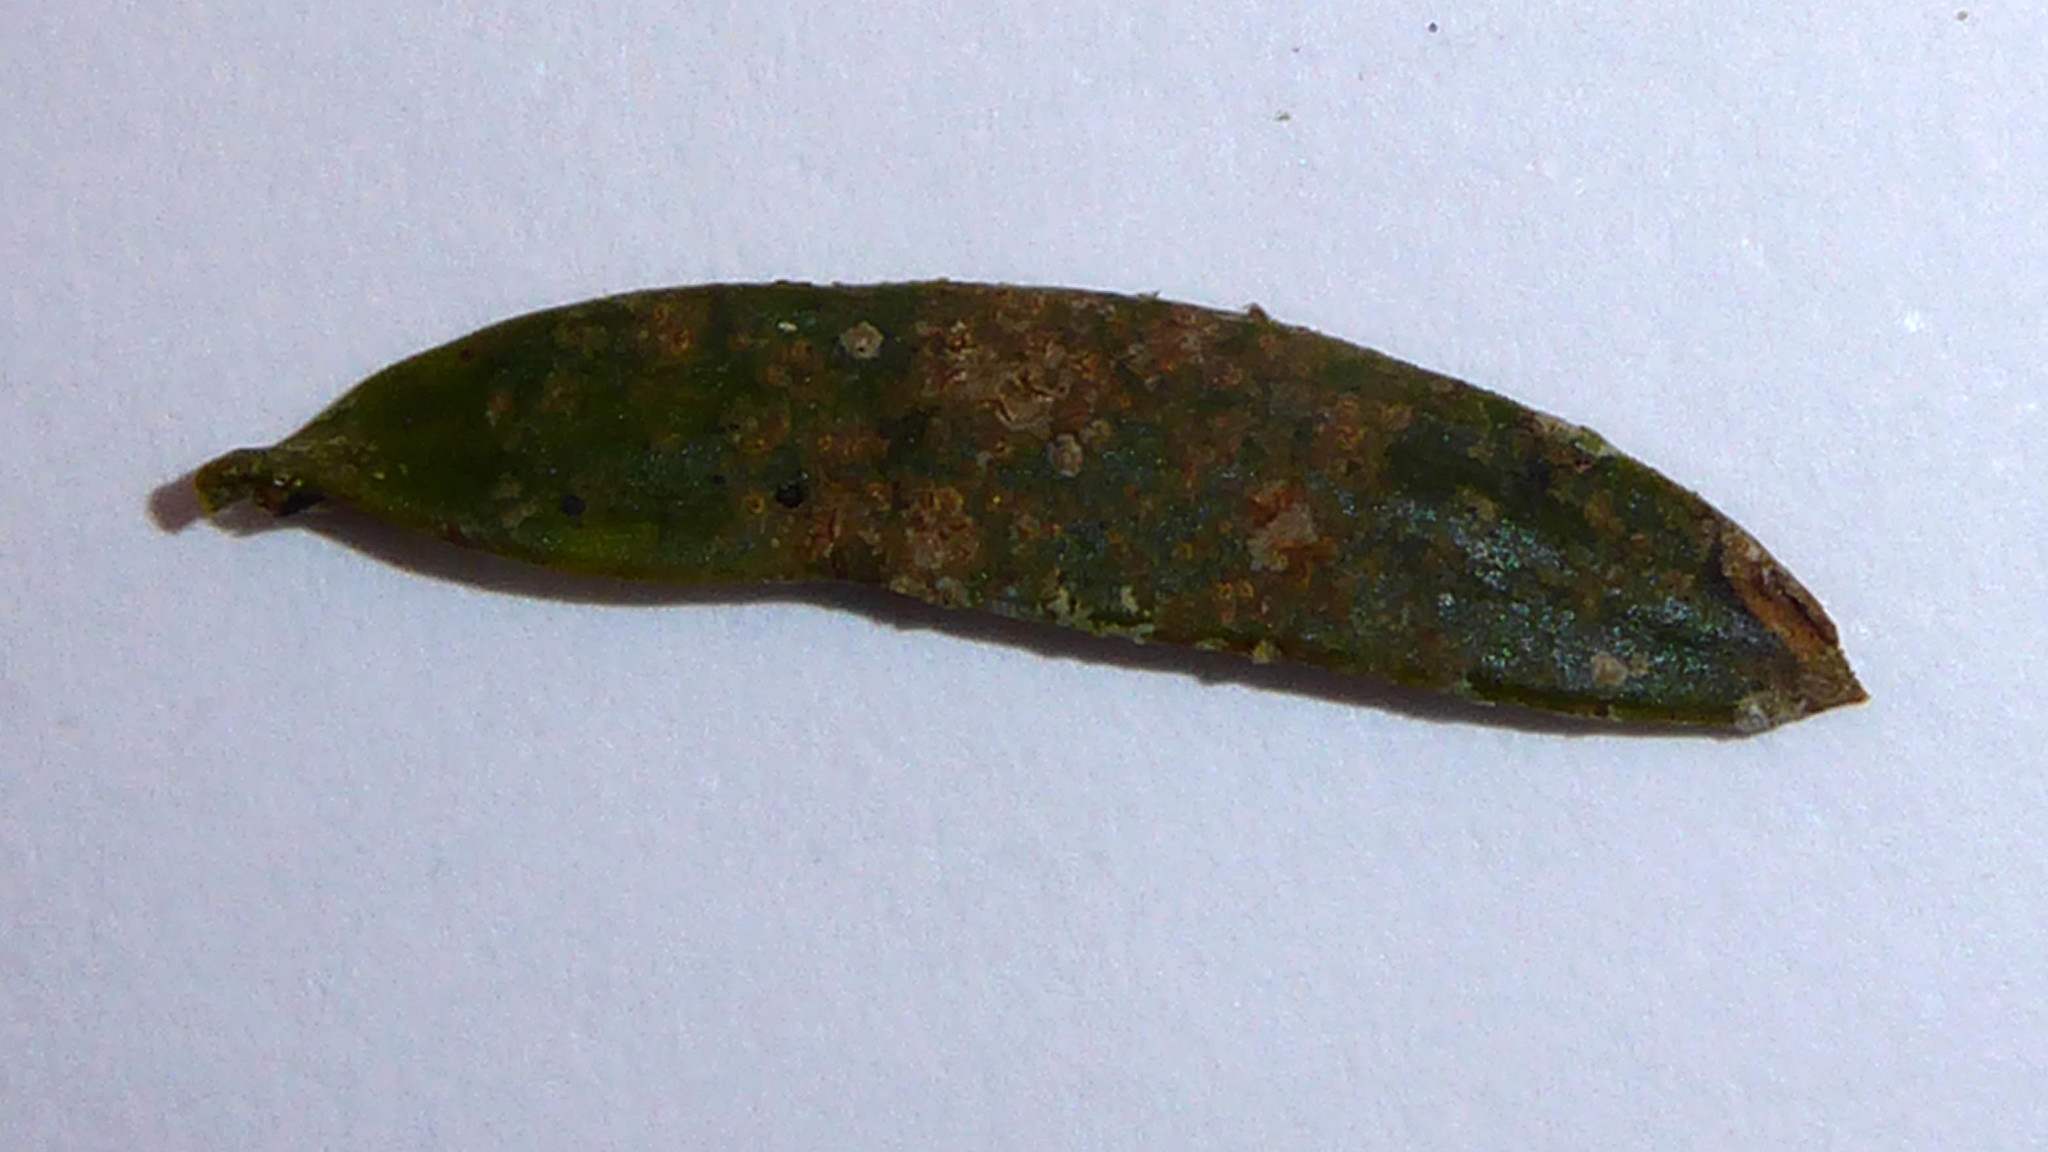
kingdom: Fungi
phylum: Ascomycota
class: Arthoniomycetes
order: Arthoniales
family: Roccellaceae
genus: Enterographa
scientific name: Enterographa bella
